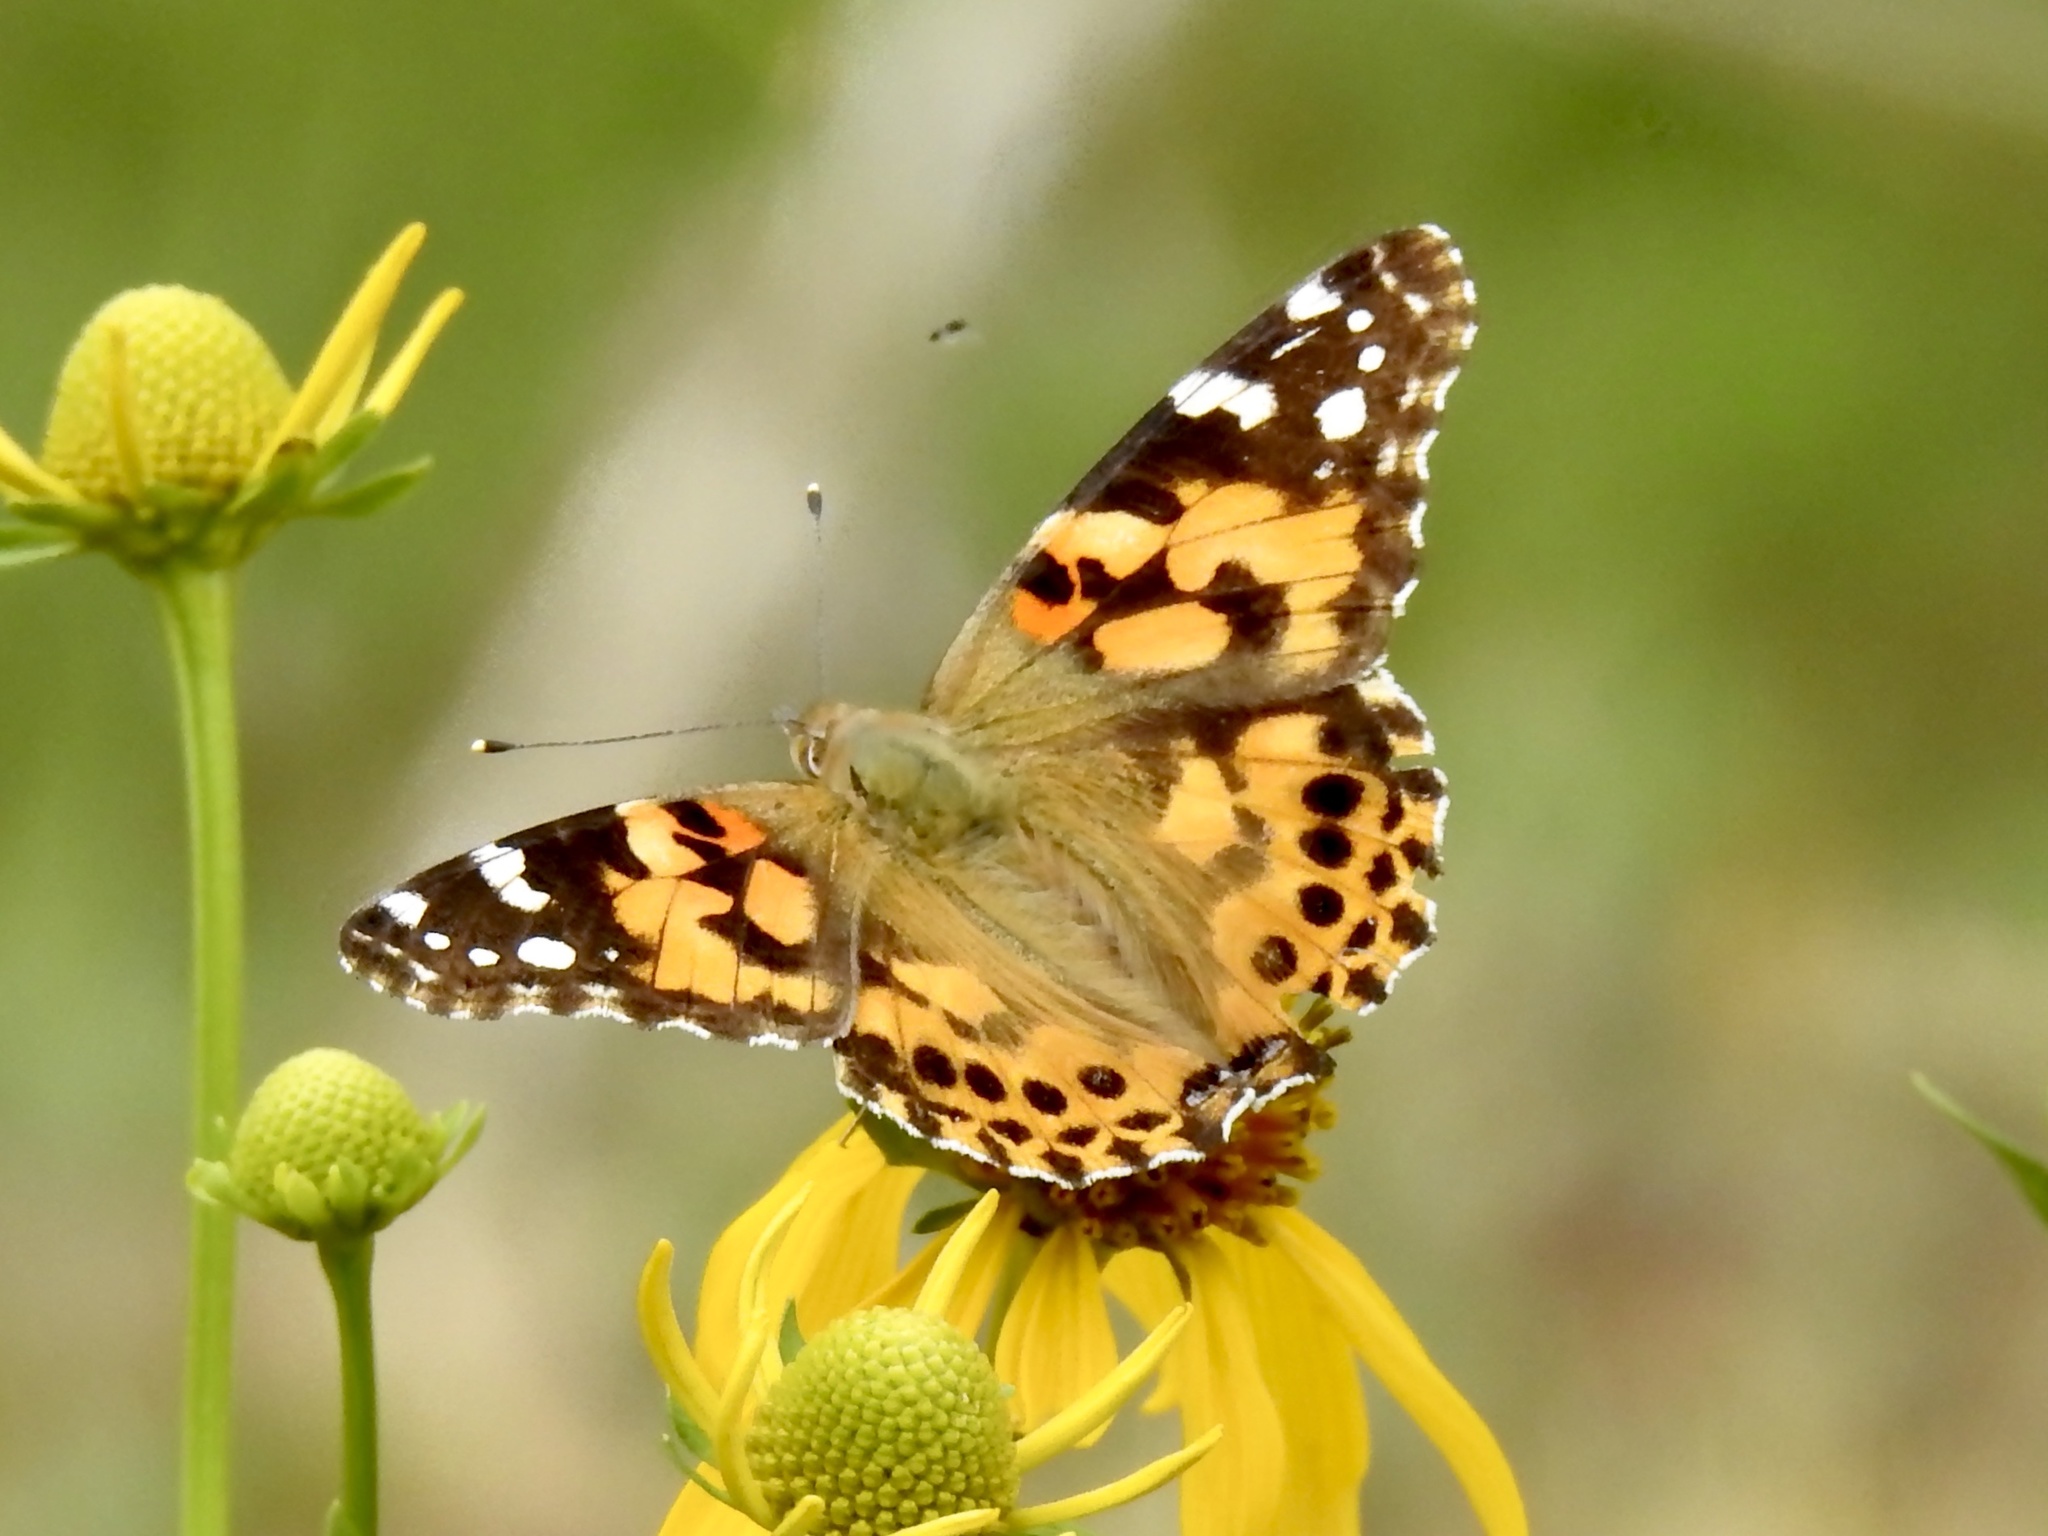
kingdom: Animalia
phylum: Arthropoda
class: Insecta
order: Lepidoptera
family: Nymphalidae
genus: Vanessa
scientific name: Vanessa cardui
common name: Painted lady
